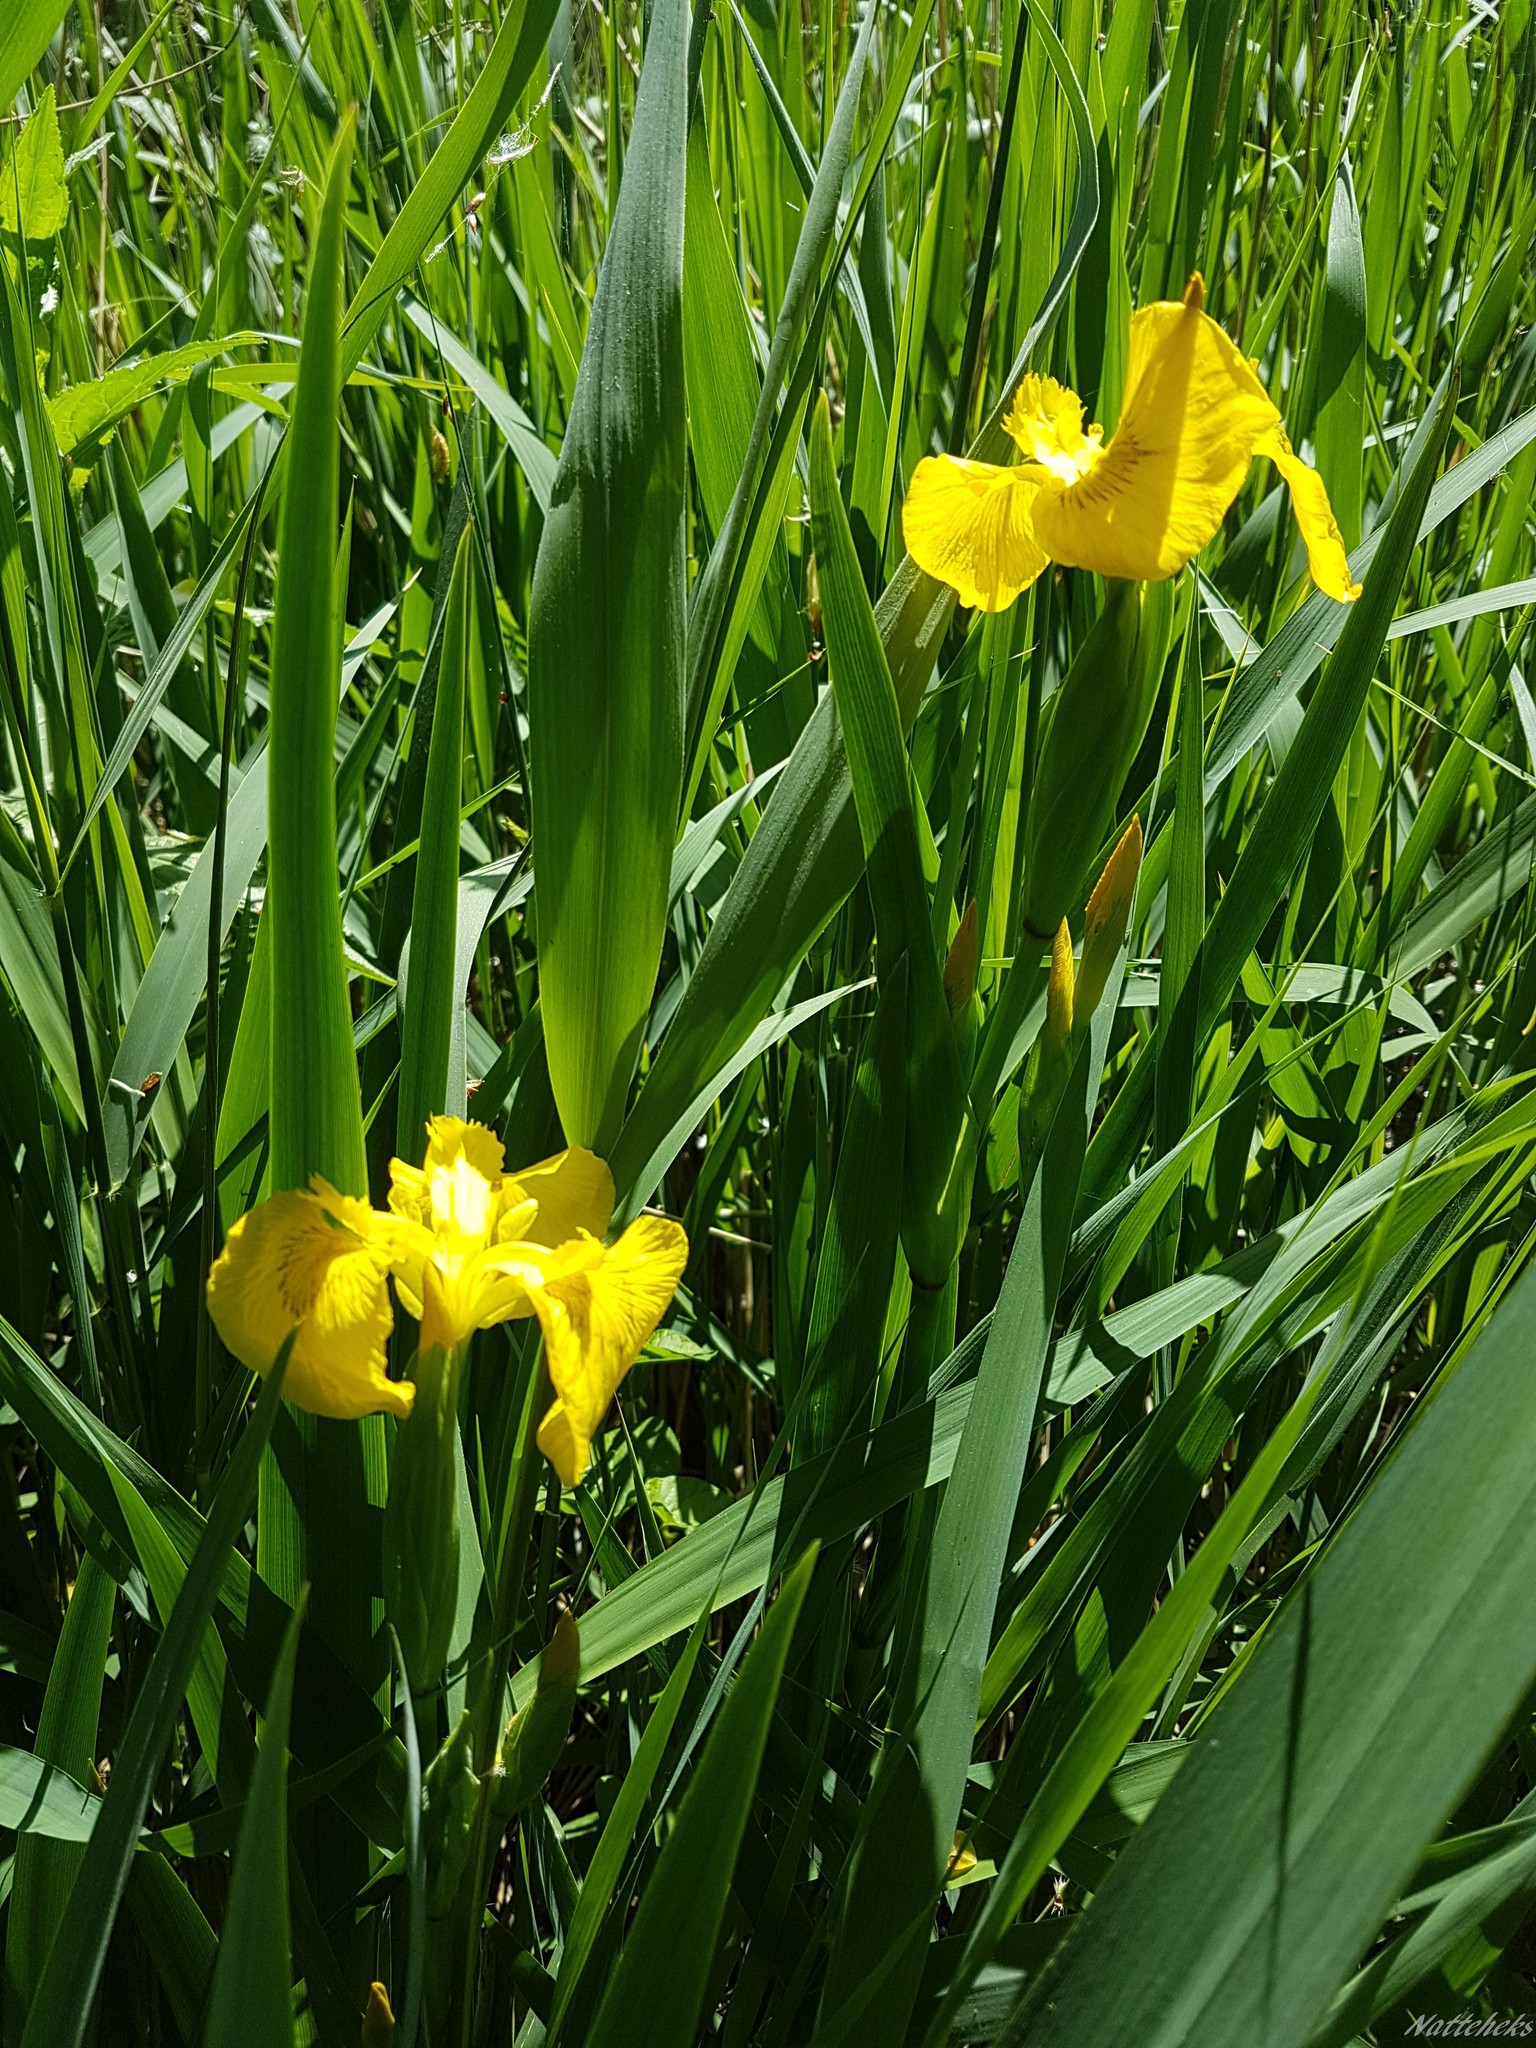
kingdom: Plantae
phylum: Tracheophyta
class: Liliopsida
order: Asparagales
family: Iridaceae
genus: Iris
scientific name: Iris pseudacorus
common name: Yellow flag
